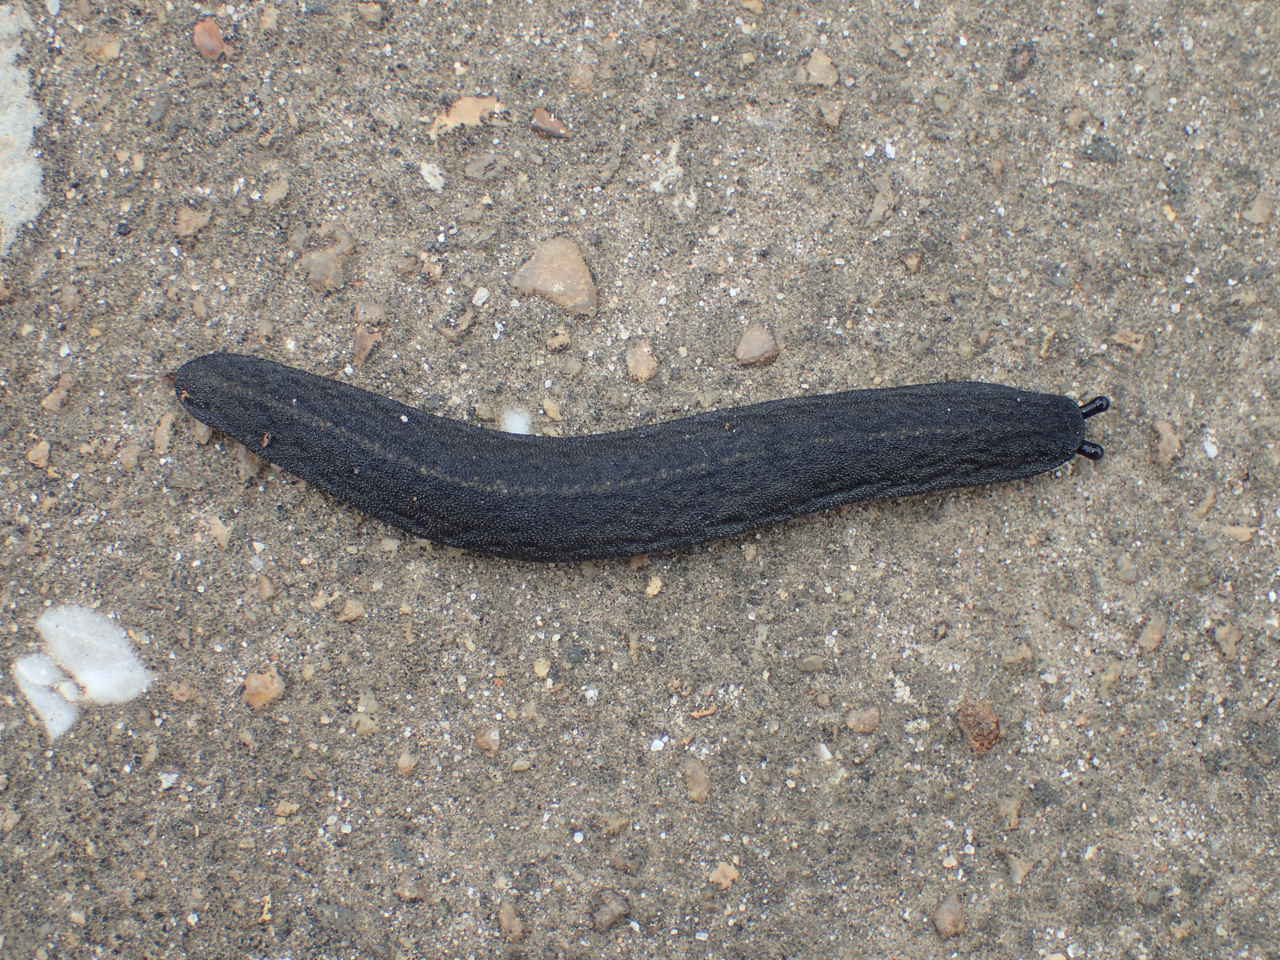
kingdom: Animalia
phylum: Mollusca
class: Gastropoda
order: Systellommatophora
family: Veronicellidae
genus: Belocaulus
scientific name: Belocaulus angustipes
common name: Black velvet leatherleaf slug
